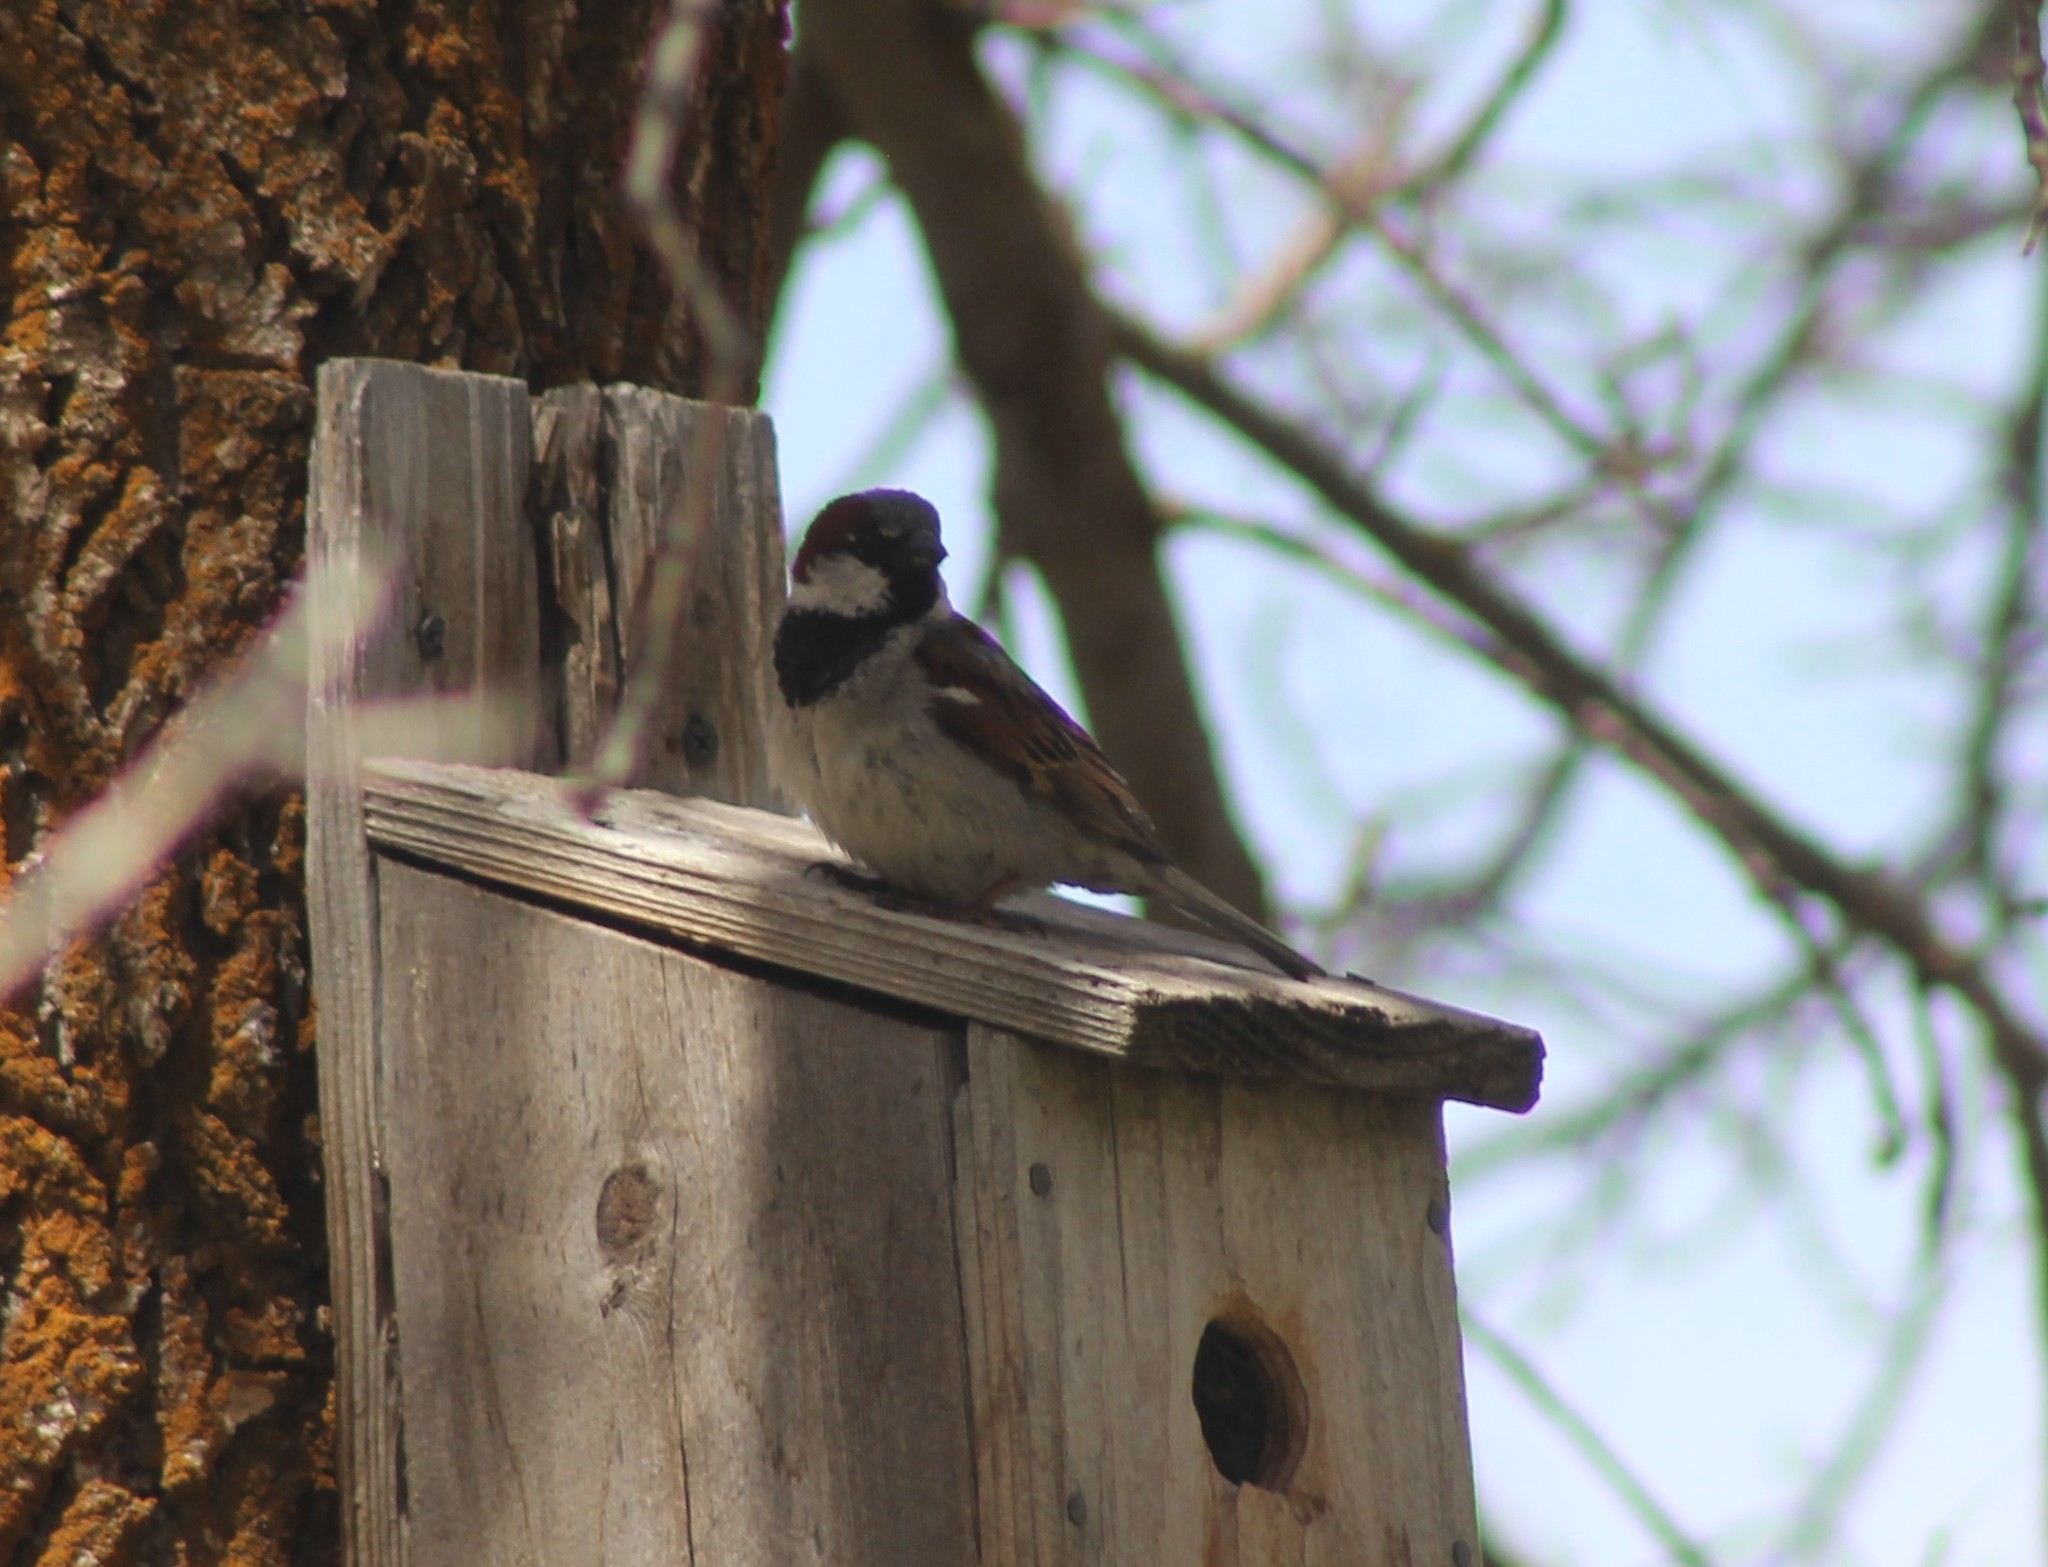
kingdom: Animalia
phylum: Chordata
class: Aves
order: Passeriformes
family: Passeridae
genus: Passer
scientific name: Passer domesticus
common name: House sparrow
